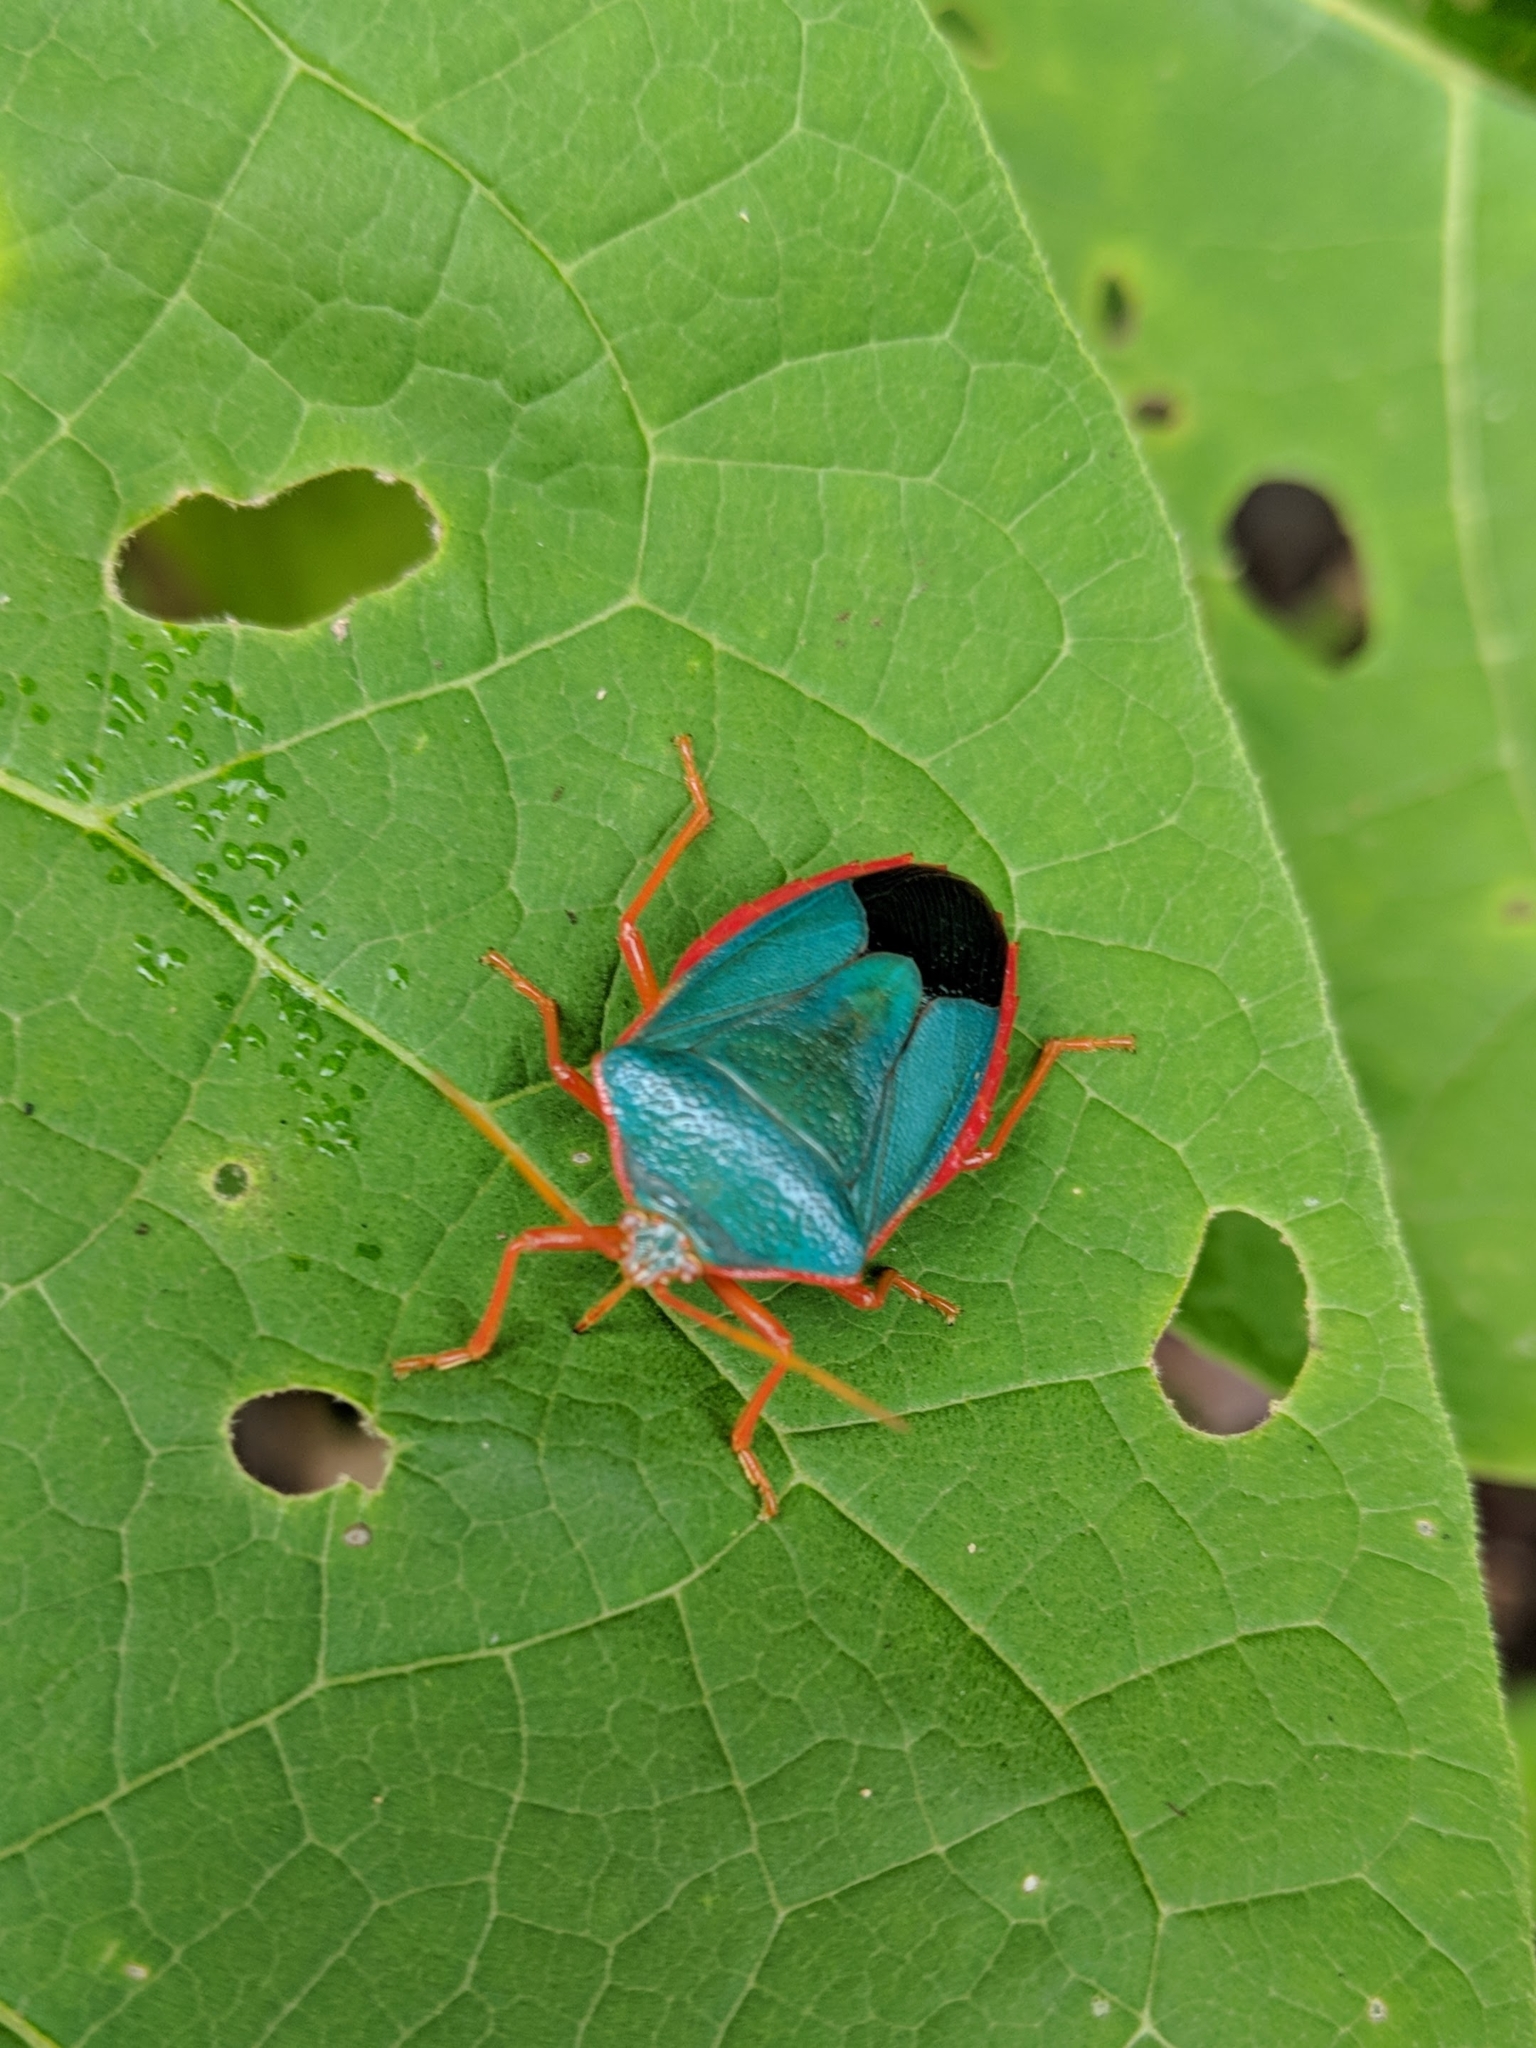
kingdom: Animalia
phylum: Arthropoda
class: Insecta
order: Hemiptera
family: Pentatomidae
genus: Edessa
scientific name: Edessa rufomarginata
